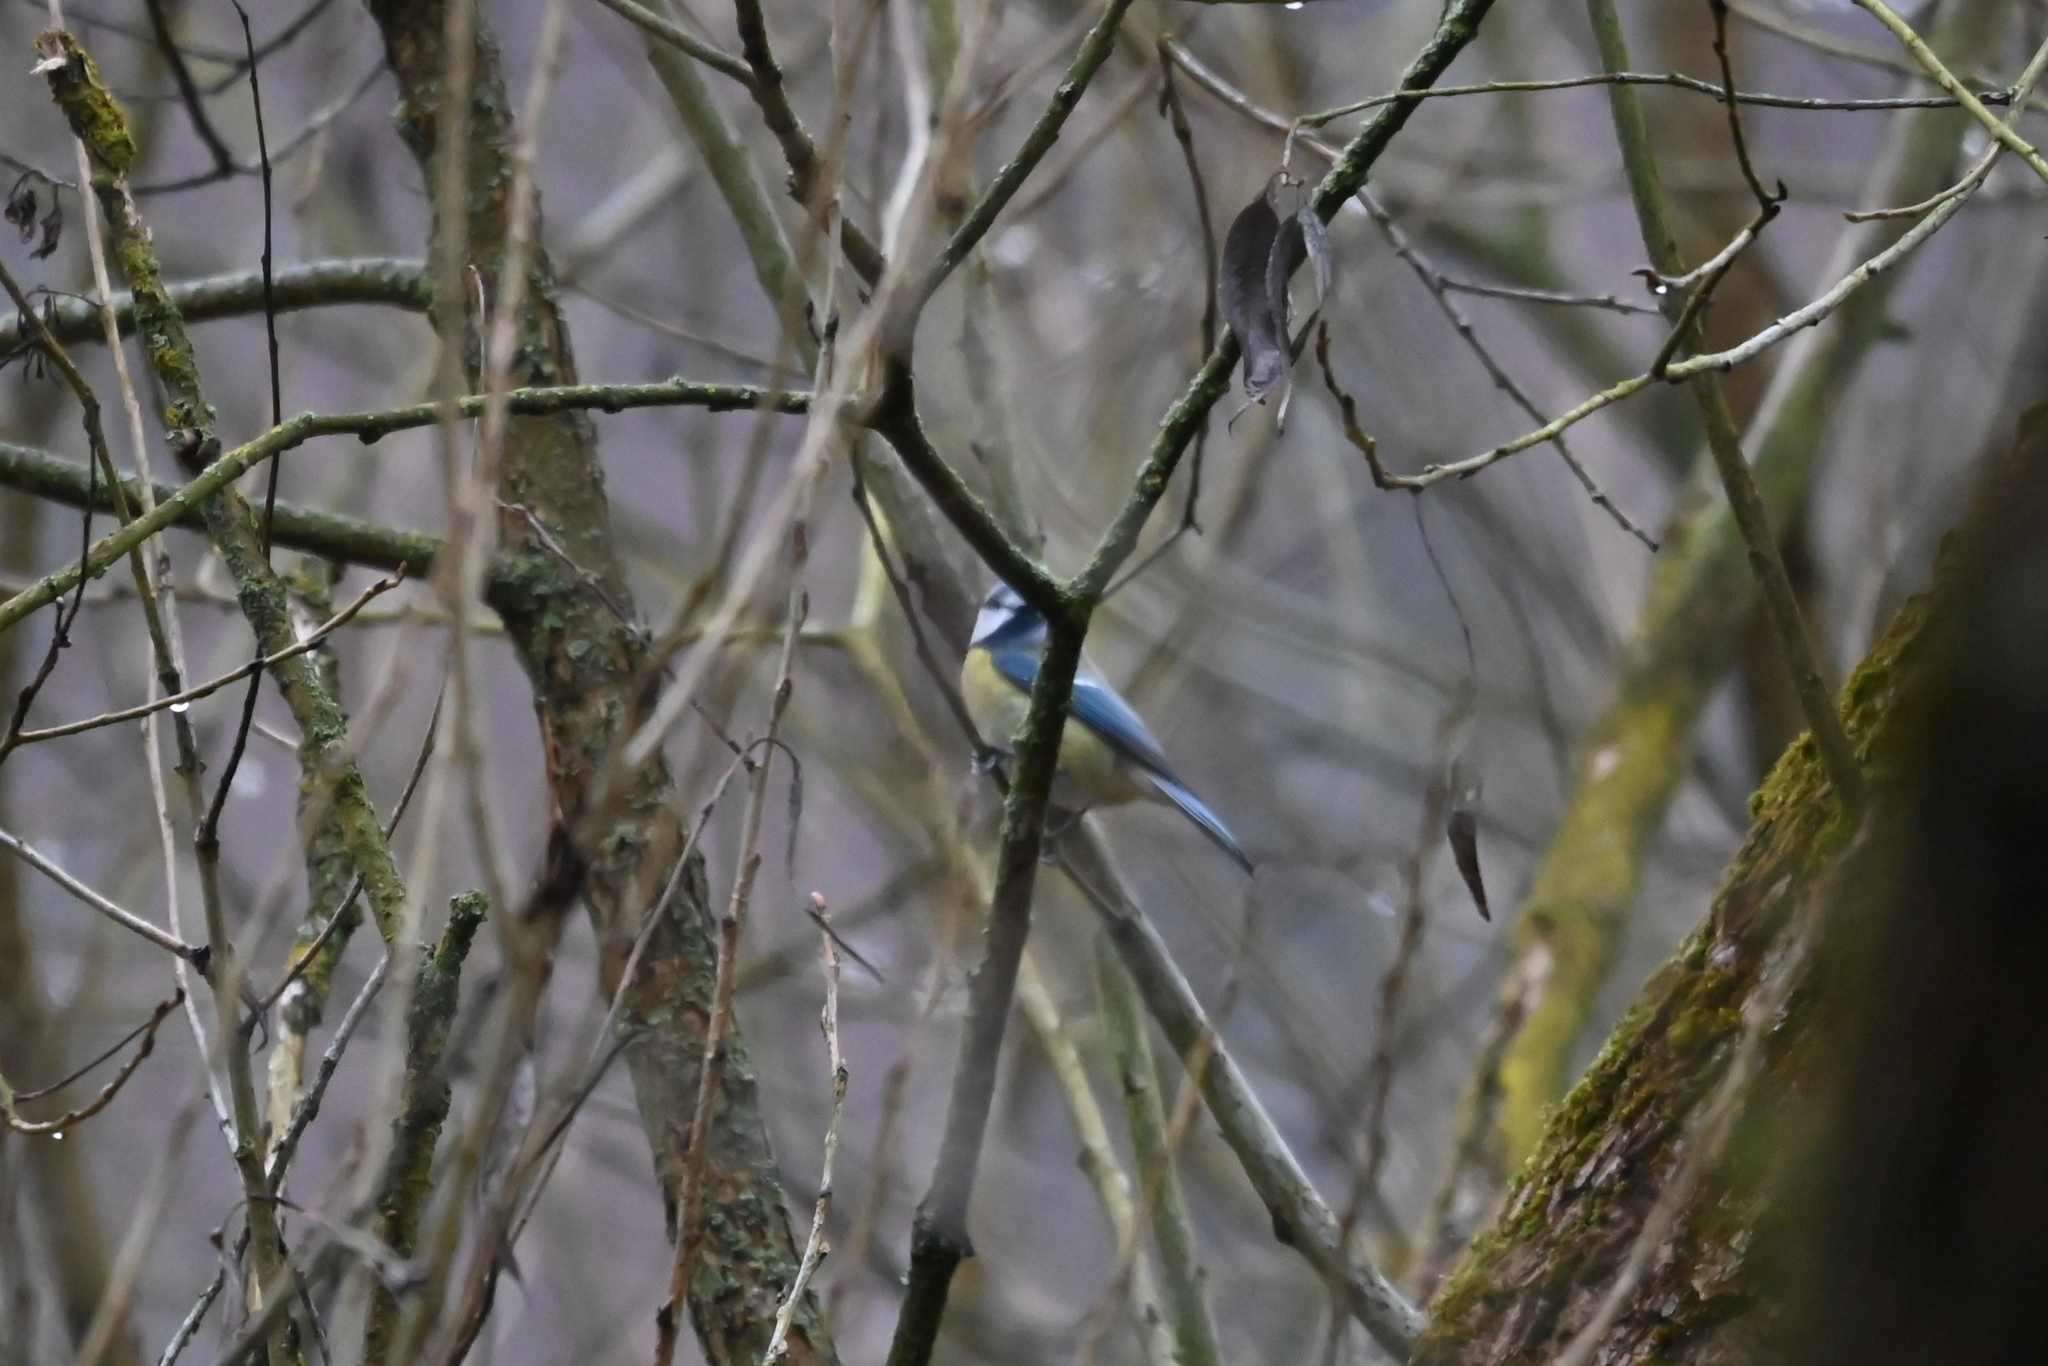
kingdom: Animalia
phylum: Chordata
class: Aves
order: Passeriformes
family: Paridae
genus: Cyanistes
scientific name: Cyanistes caeruleus
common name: Eurasian blue tit
